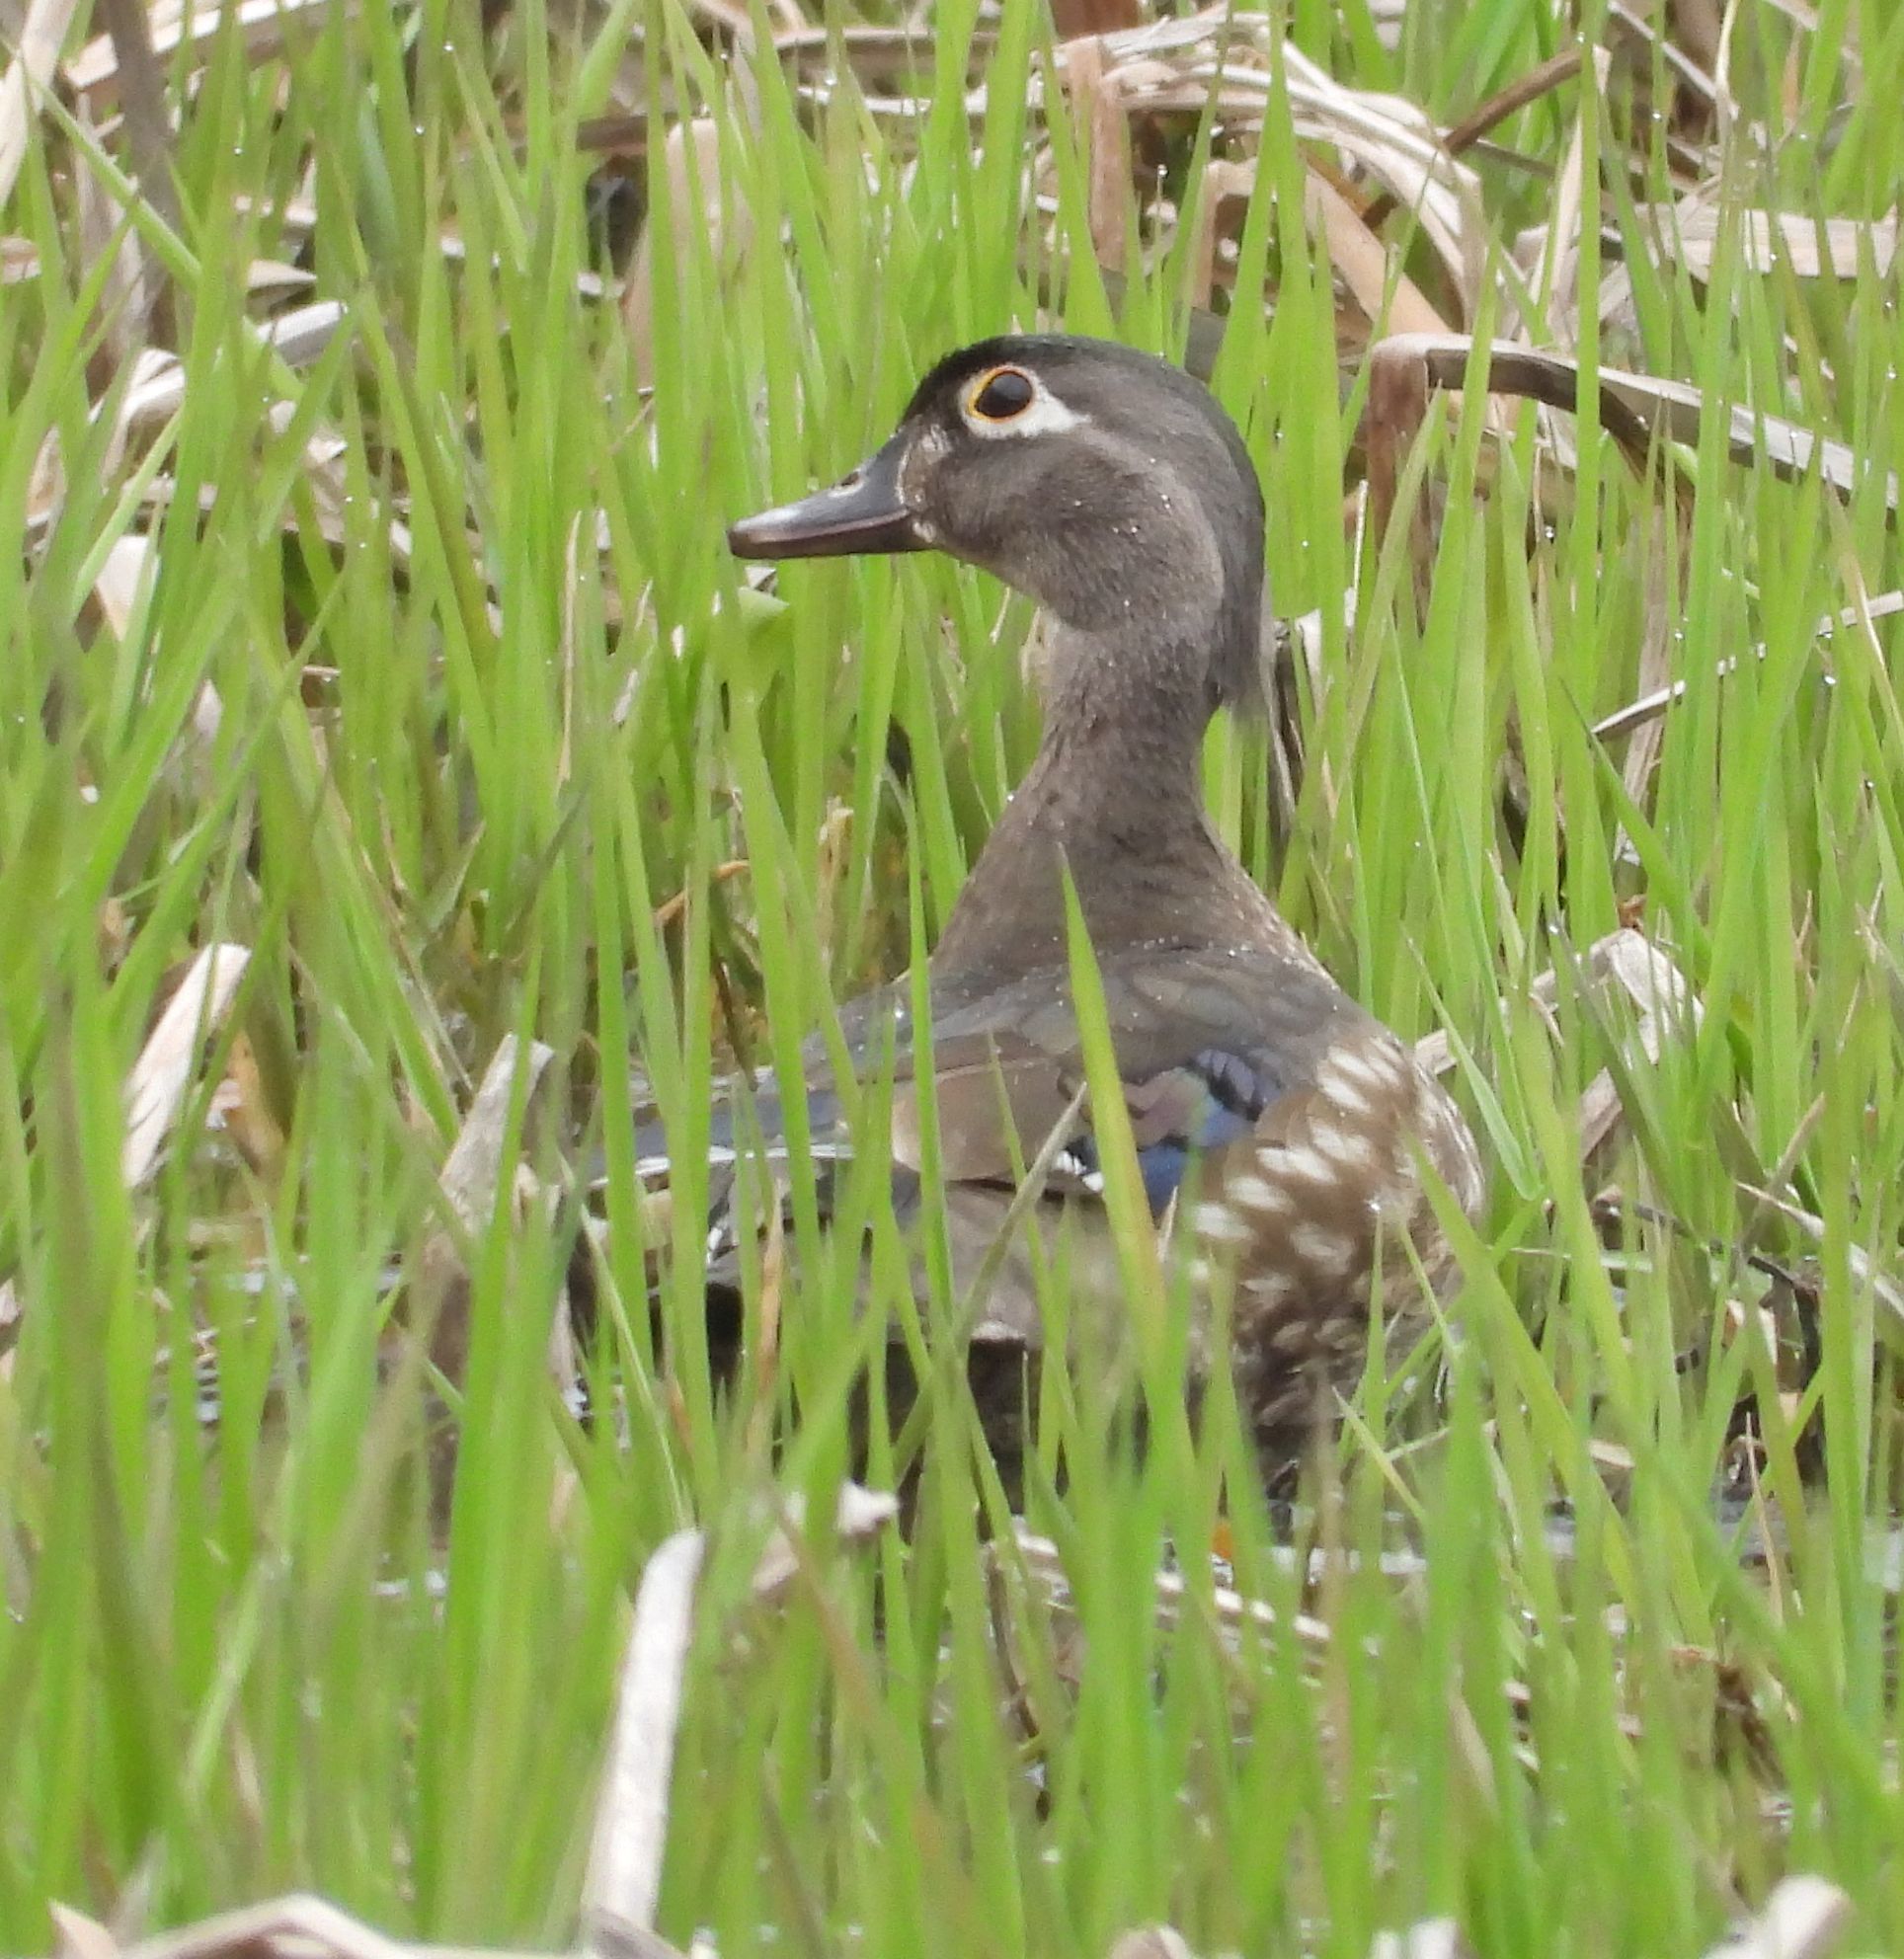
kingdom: Animalia
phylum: Chordata
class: Aves
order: Anseriformes
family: Anatidae
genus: Aix
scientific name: Aix sponsa
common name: Wood duck
